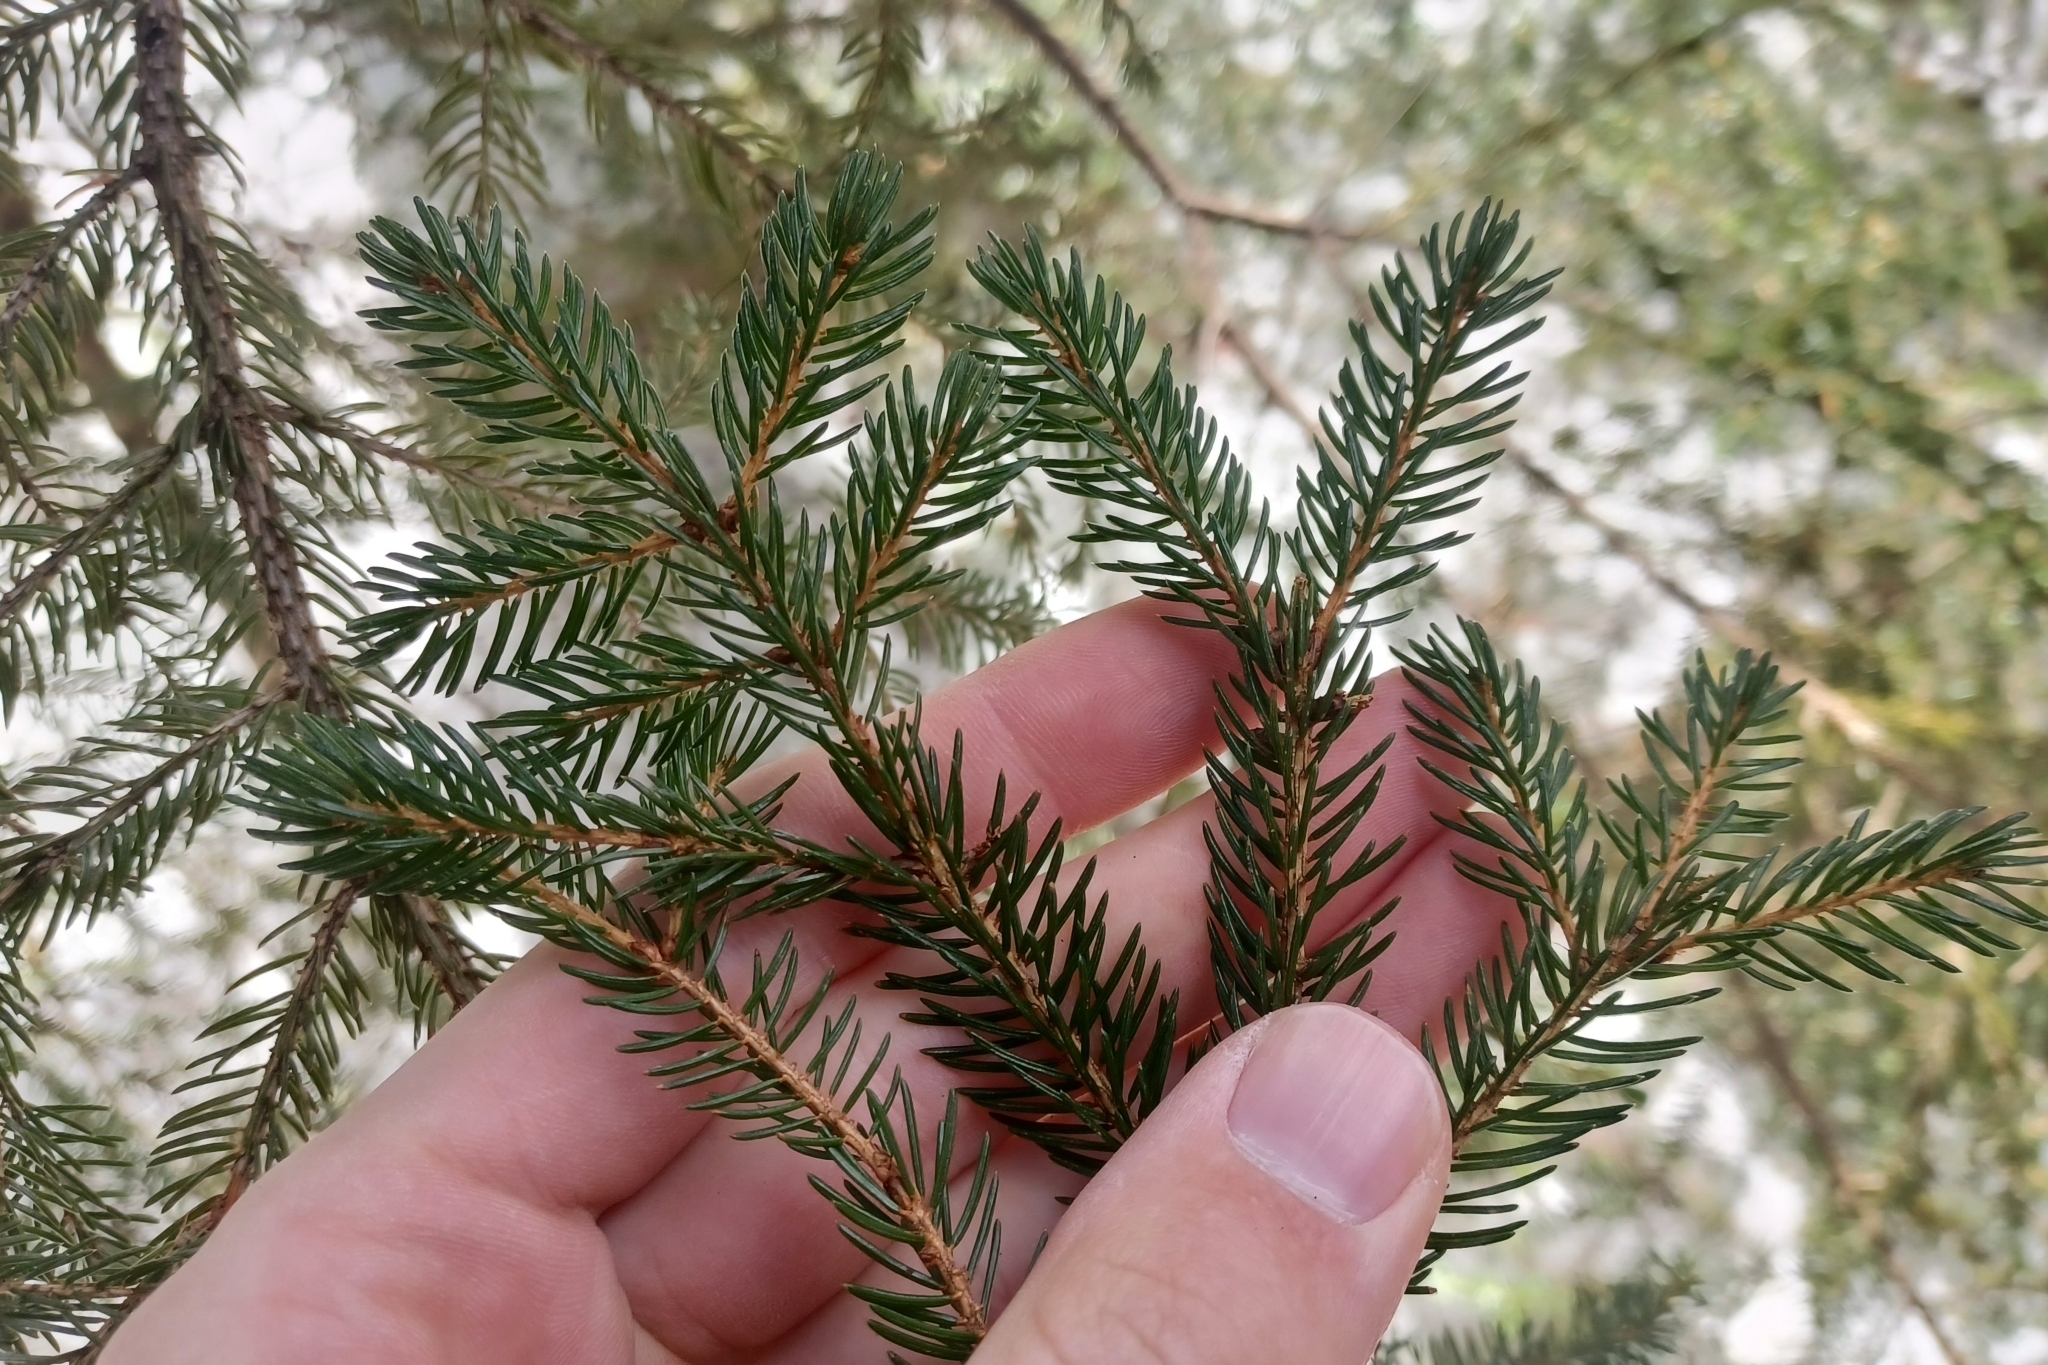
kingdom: Plantae
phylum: Tracheophyta
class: Pinopsida
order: Pinales
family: Pinaceae
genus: Picea
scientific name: Picea rubens
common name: Red spruce
